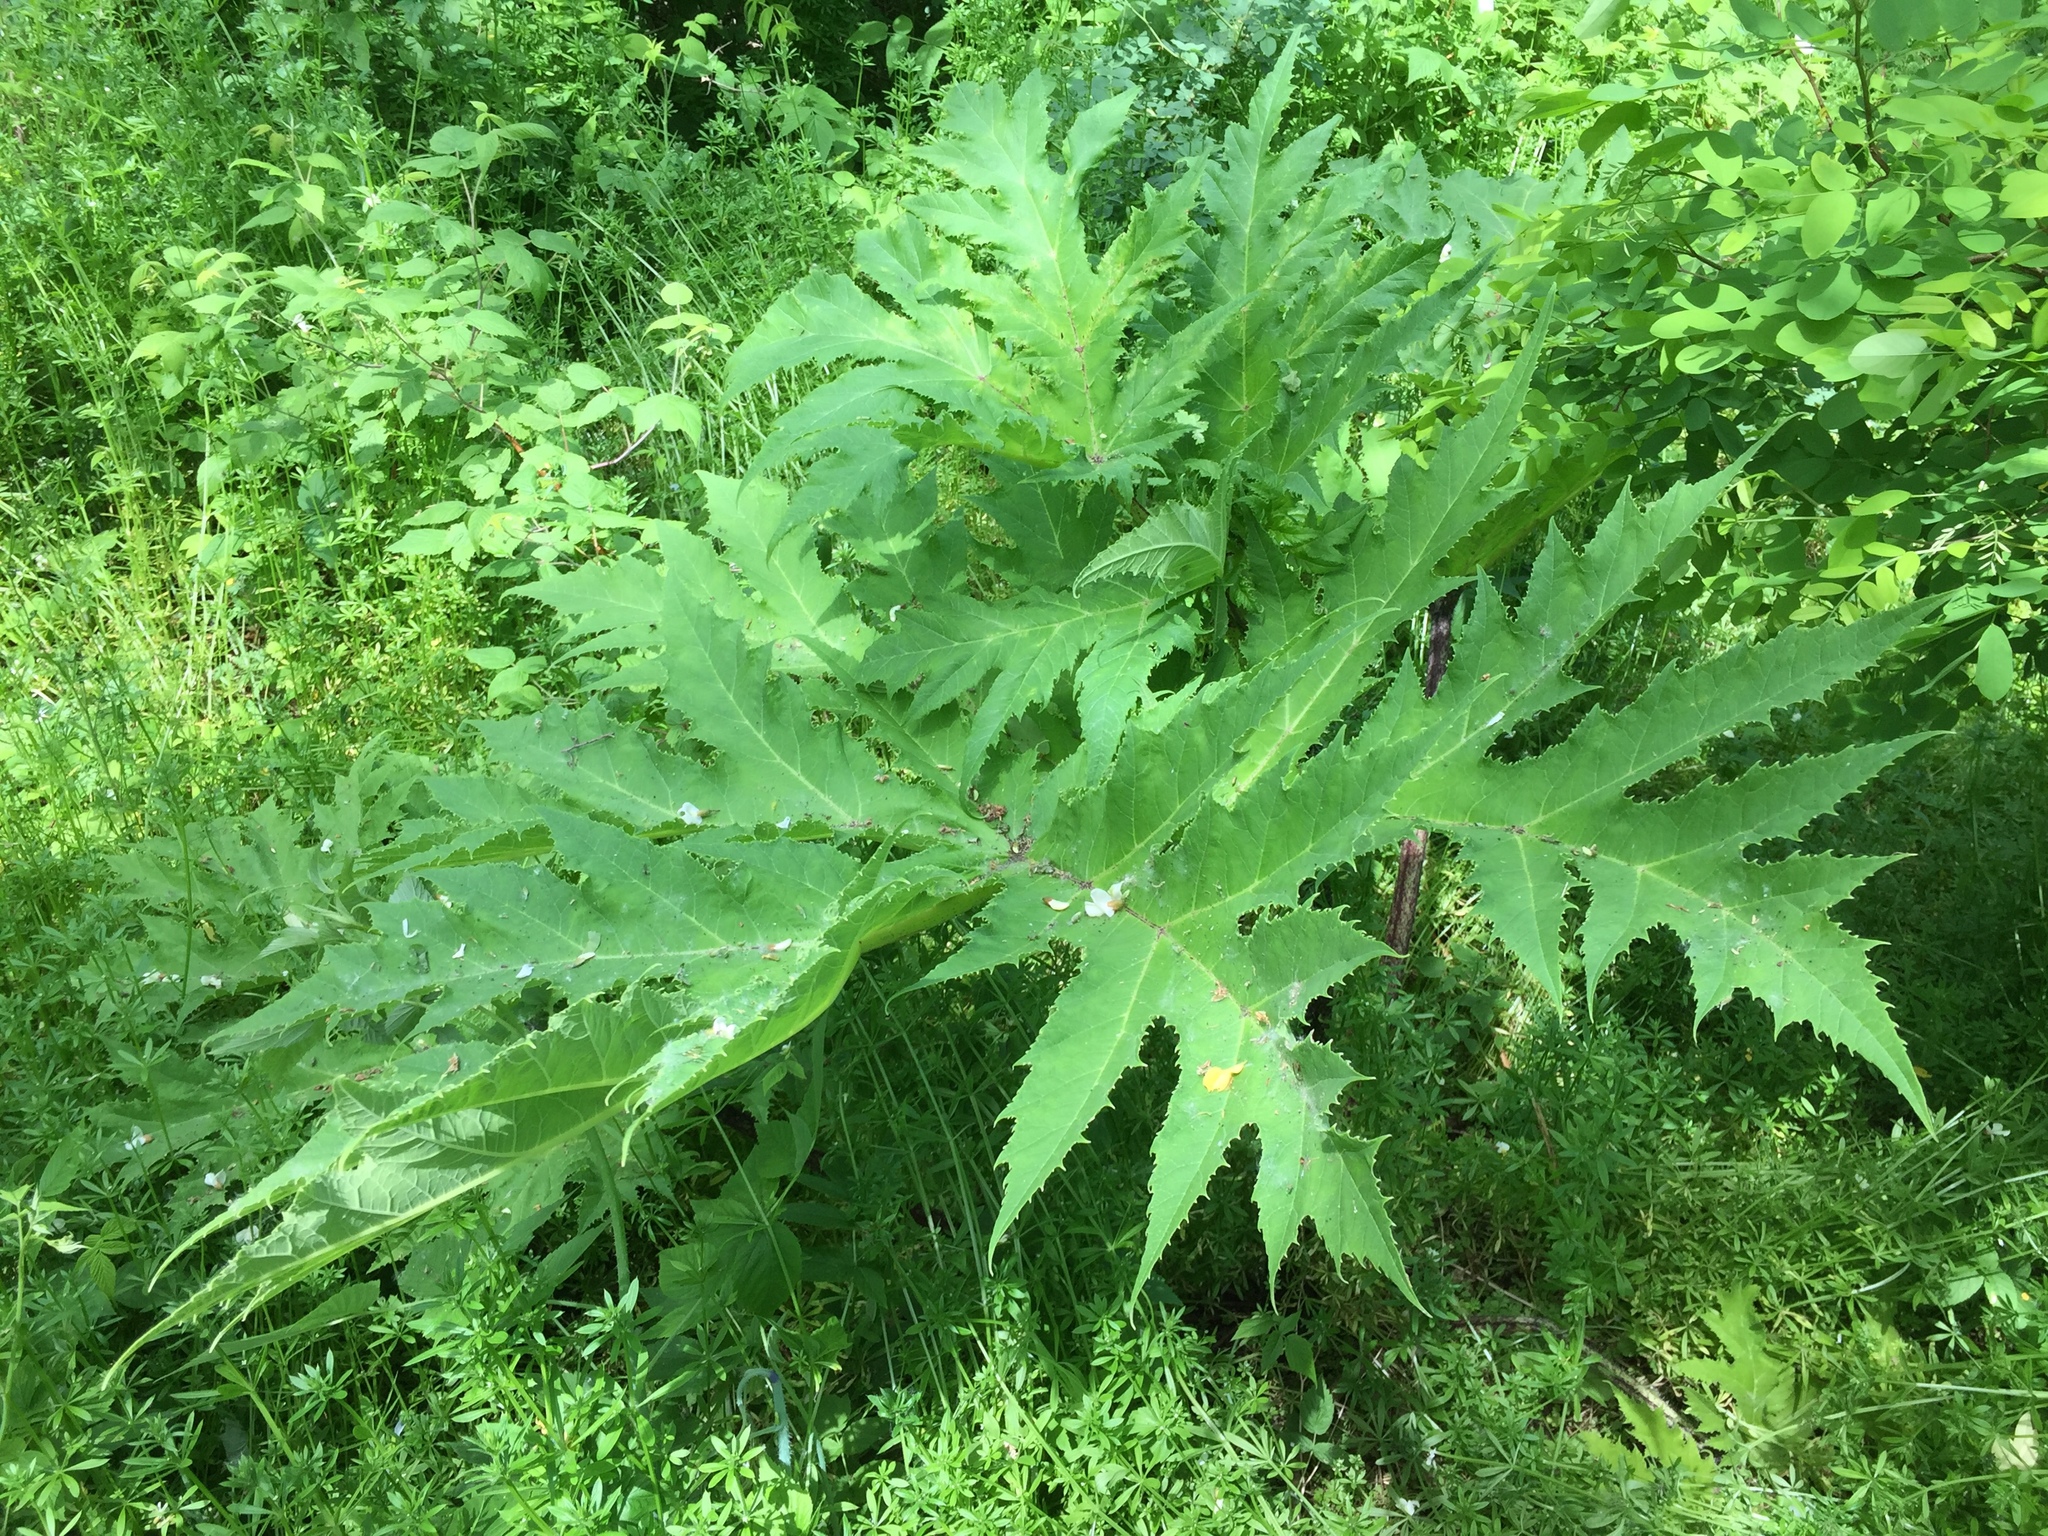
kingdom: Plantae
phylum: Tracheophyta
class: Magnoliopsida
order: Apiales
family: Apiaceae
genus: Heracleum
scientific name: Heracleum mantegazzianum
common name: Giant hogweed
